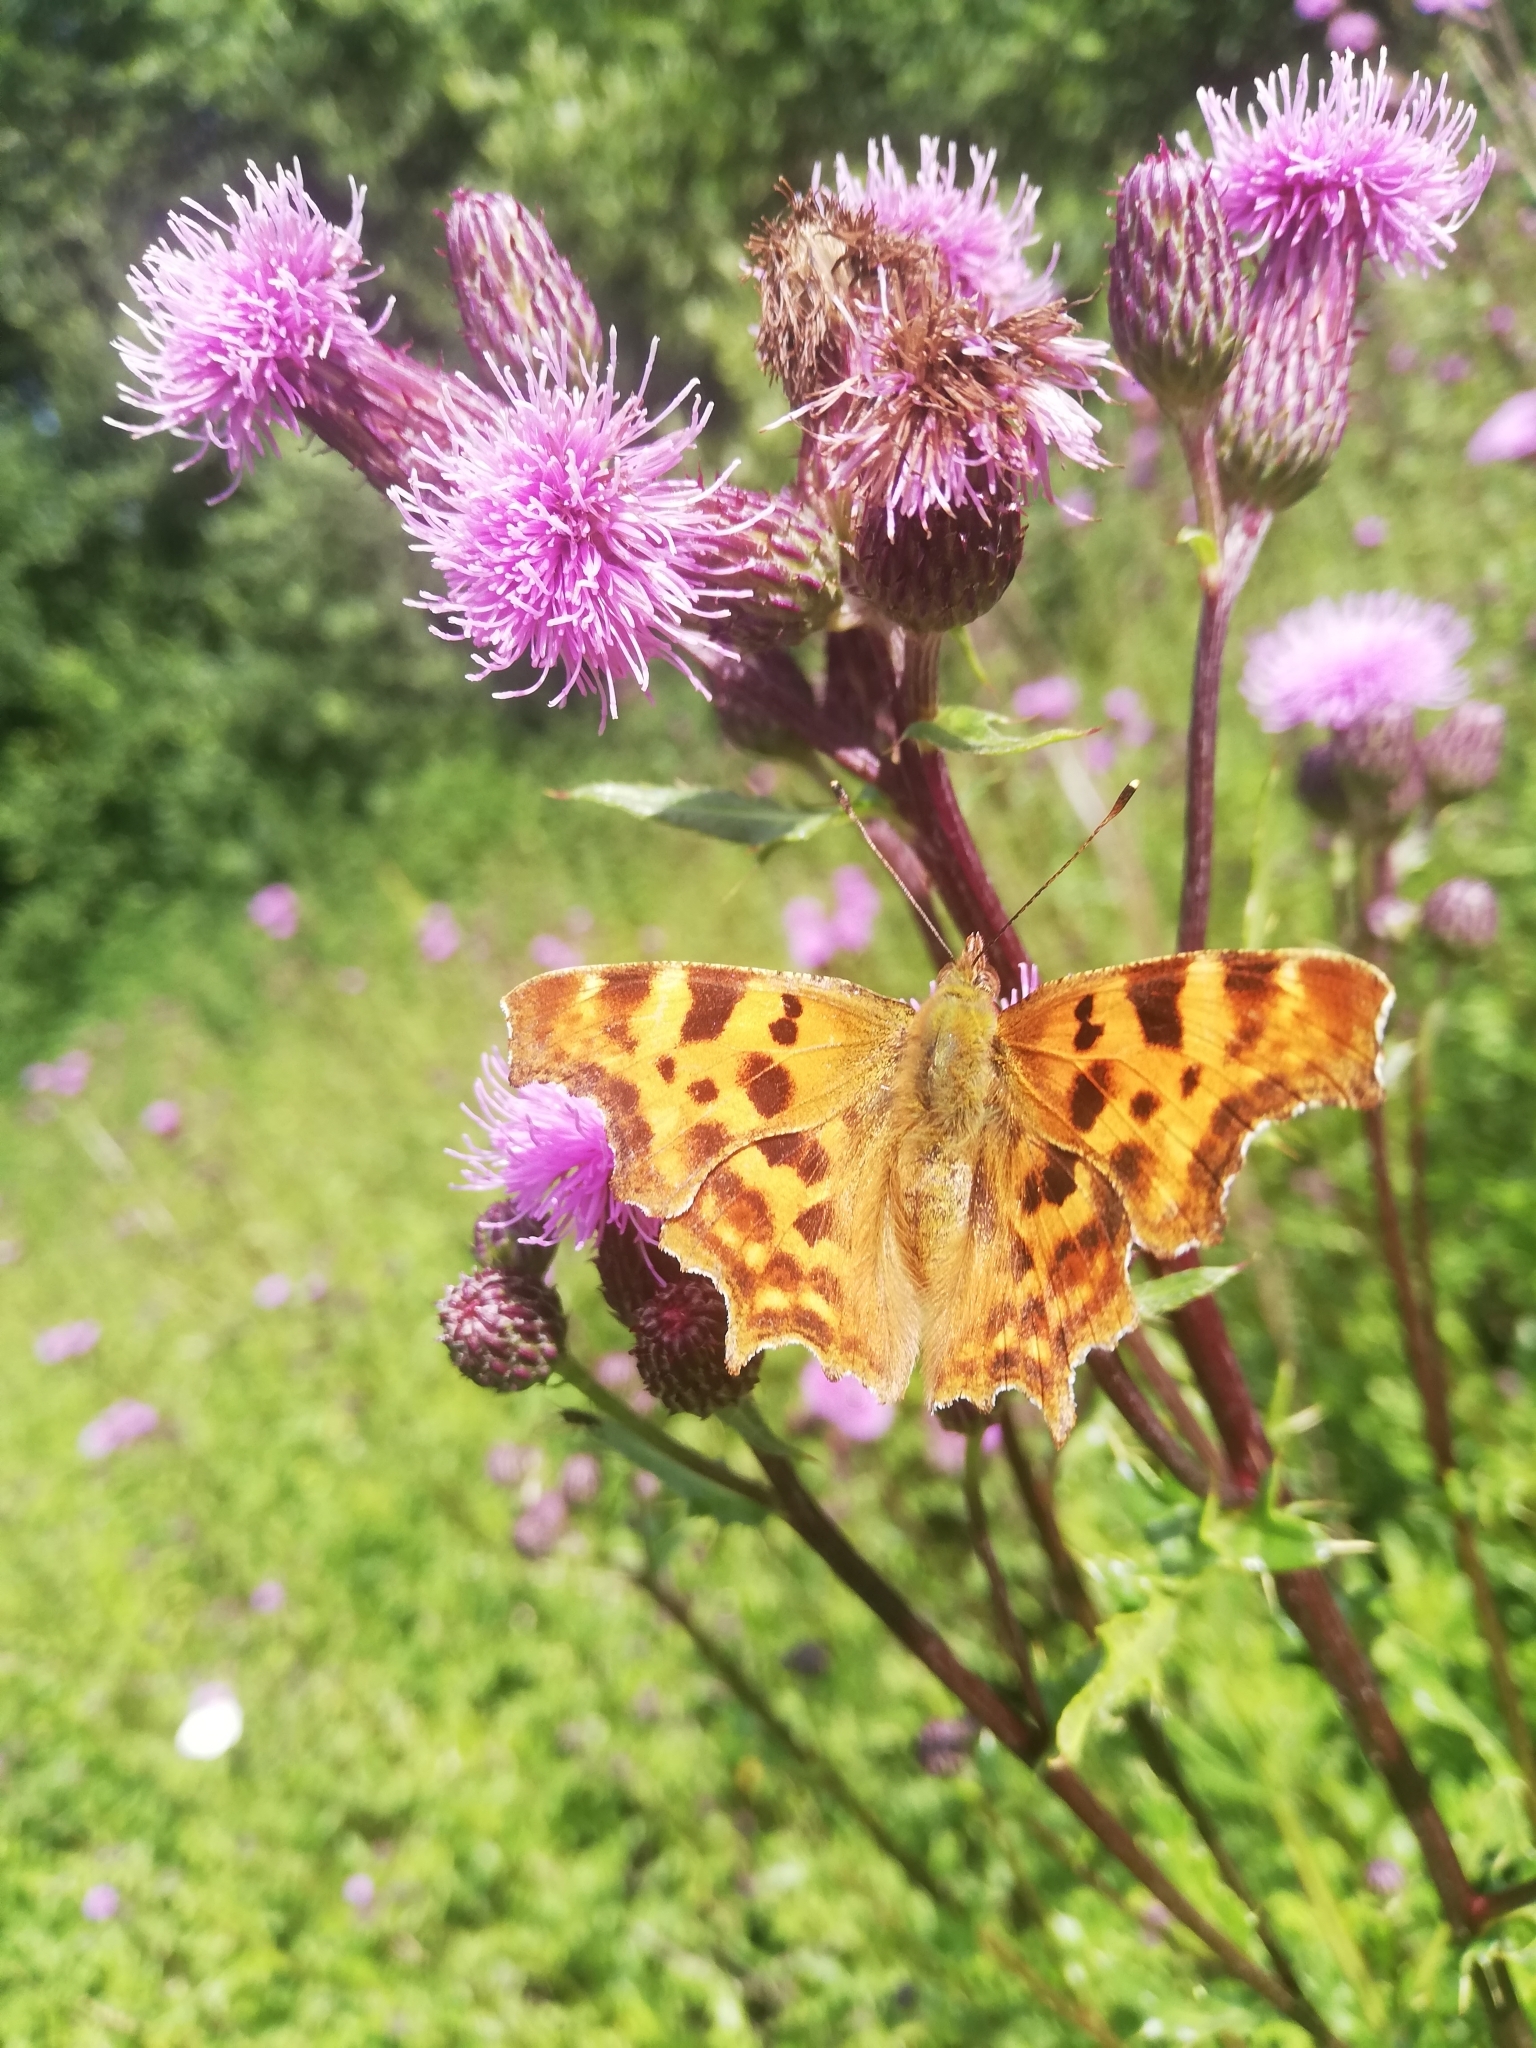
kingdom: Animalia
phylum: Arthropoda
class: Insecta
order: Lepidoptera
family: Nymphalidae
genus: Polygonia
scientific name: Polygonia c-album
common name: Comma
